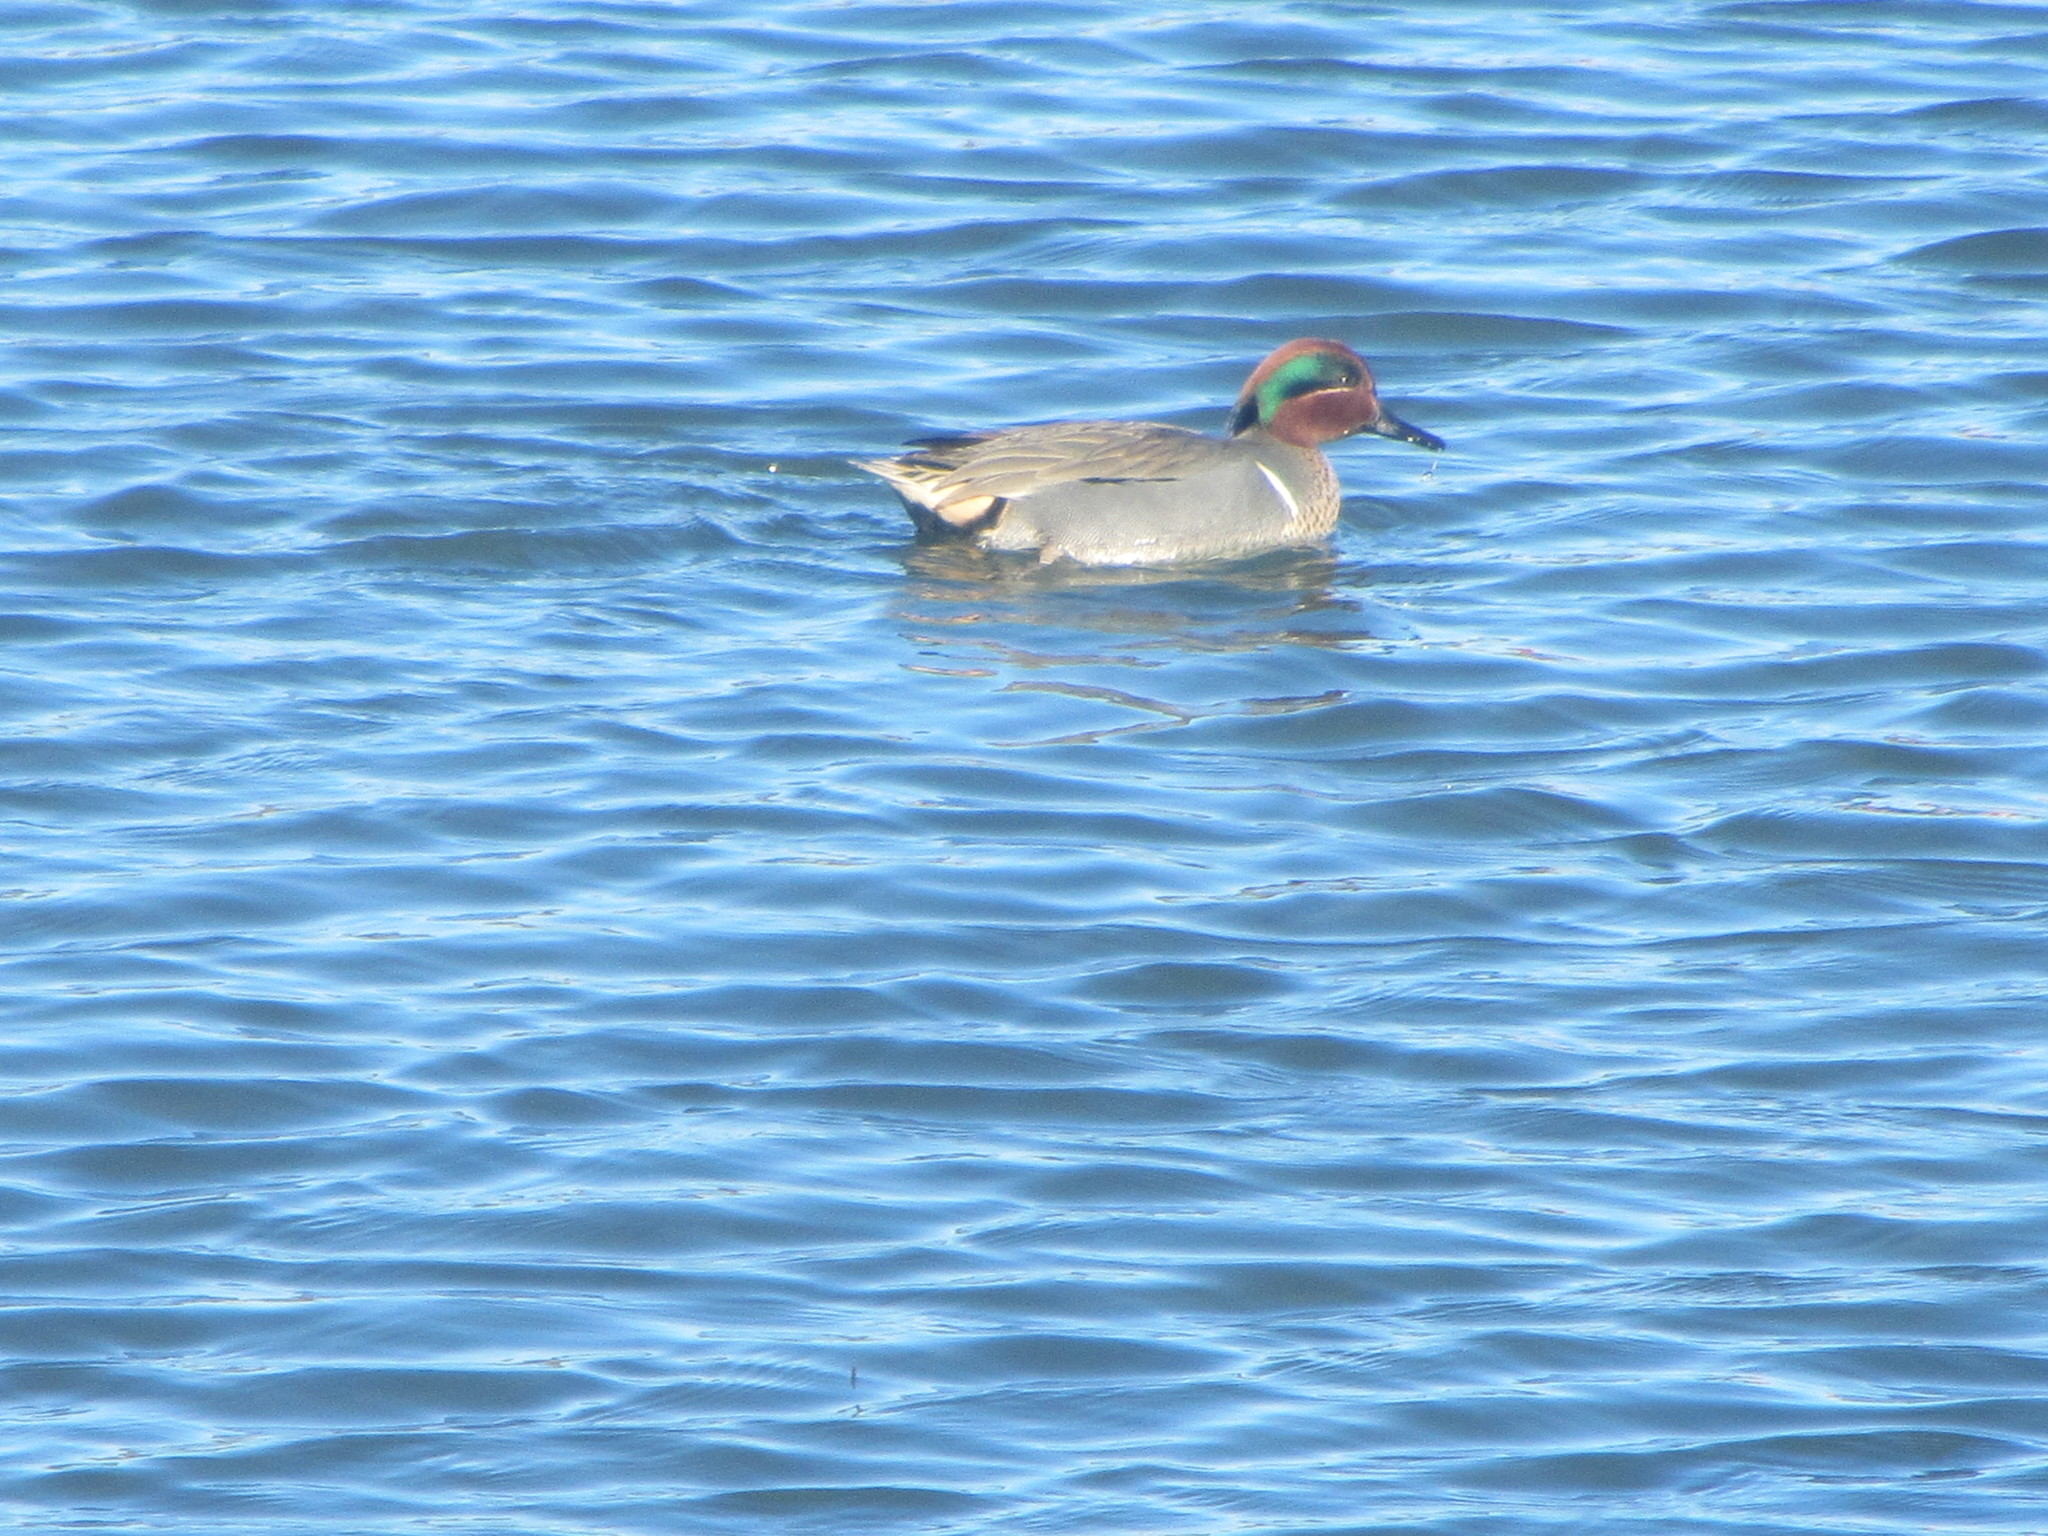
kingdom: Animalia
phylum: Chordata
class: Aves
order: Anseriformes
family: Anatidae
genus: Anas
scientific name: Anas crecca
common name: Eurasian teal
